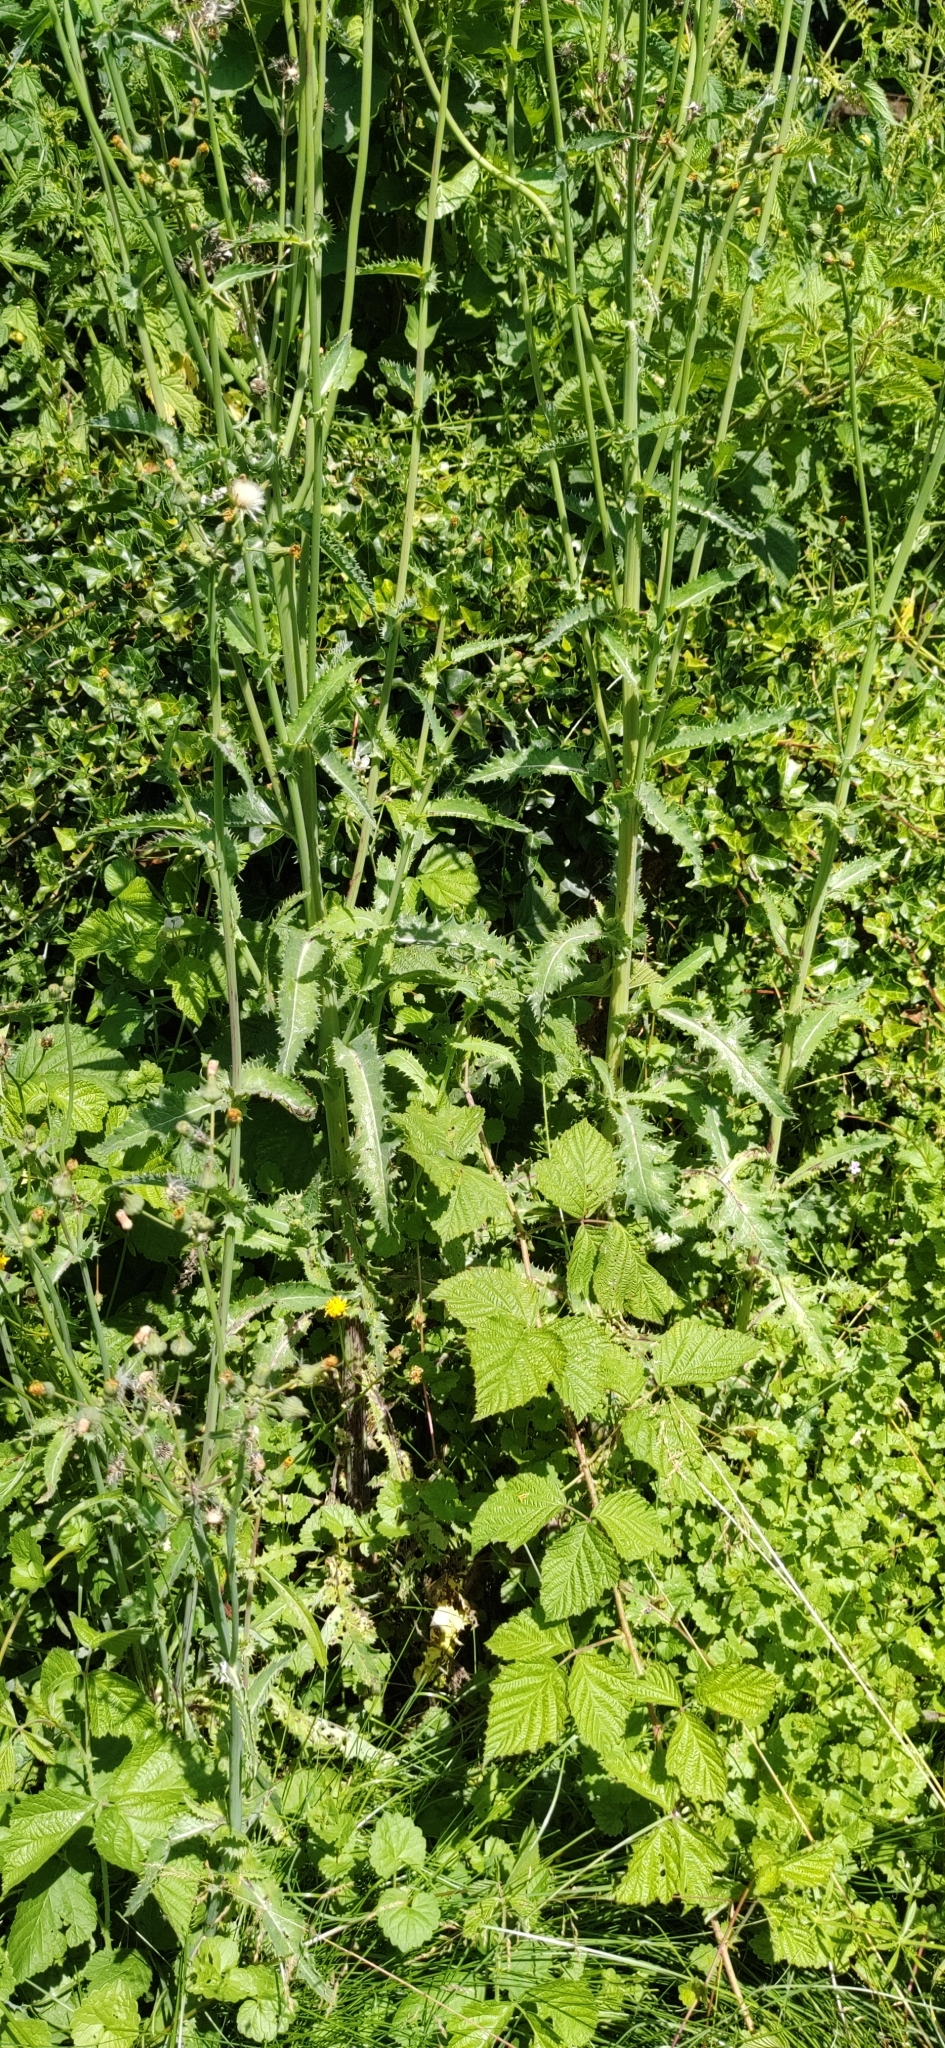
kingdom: Plantae
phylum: Tracheophyta
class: Magnoliopsida
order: Asterales
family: Asteraceae
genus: Sonchus
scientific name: Sonchus asper
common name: Prickly sow-thistle
